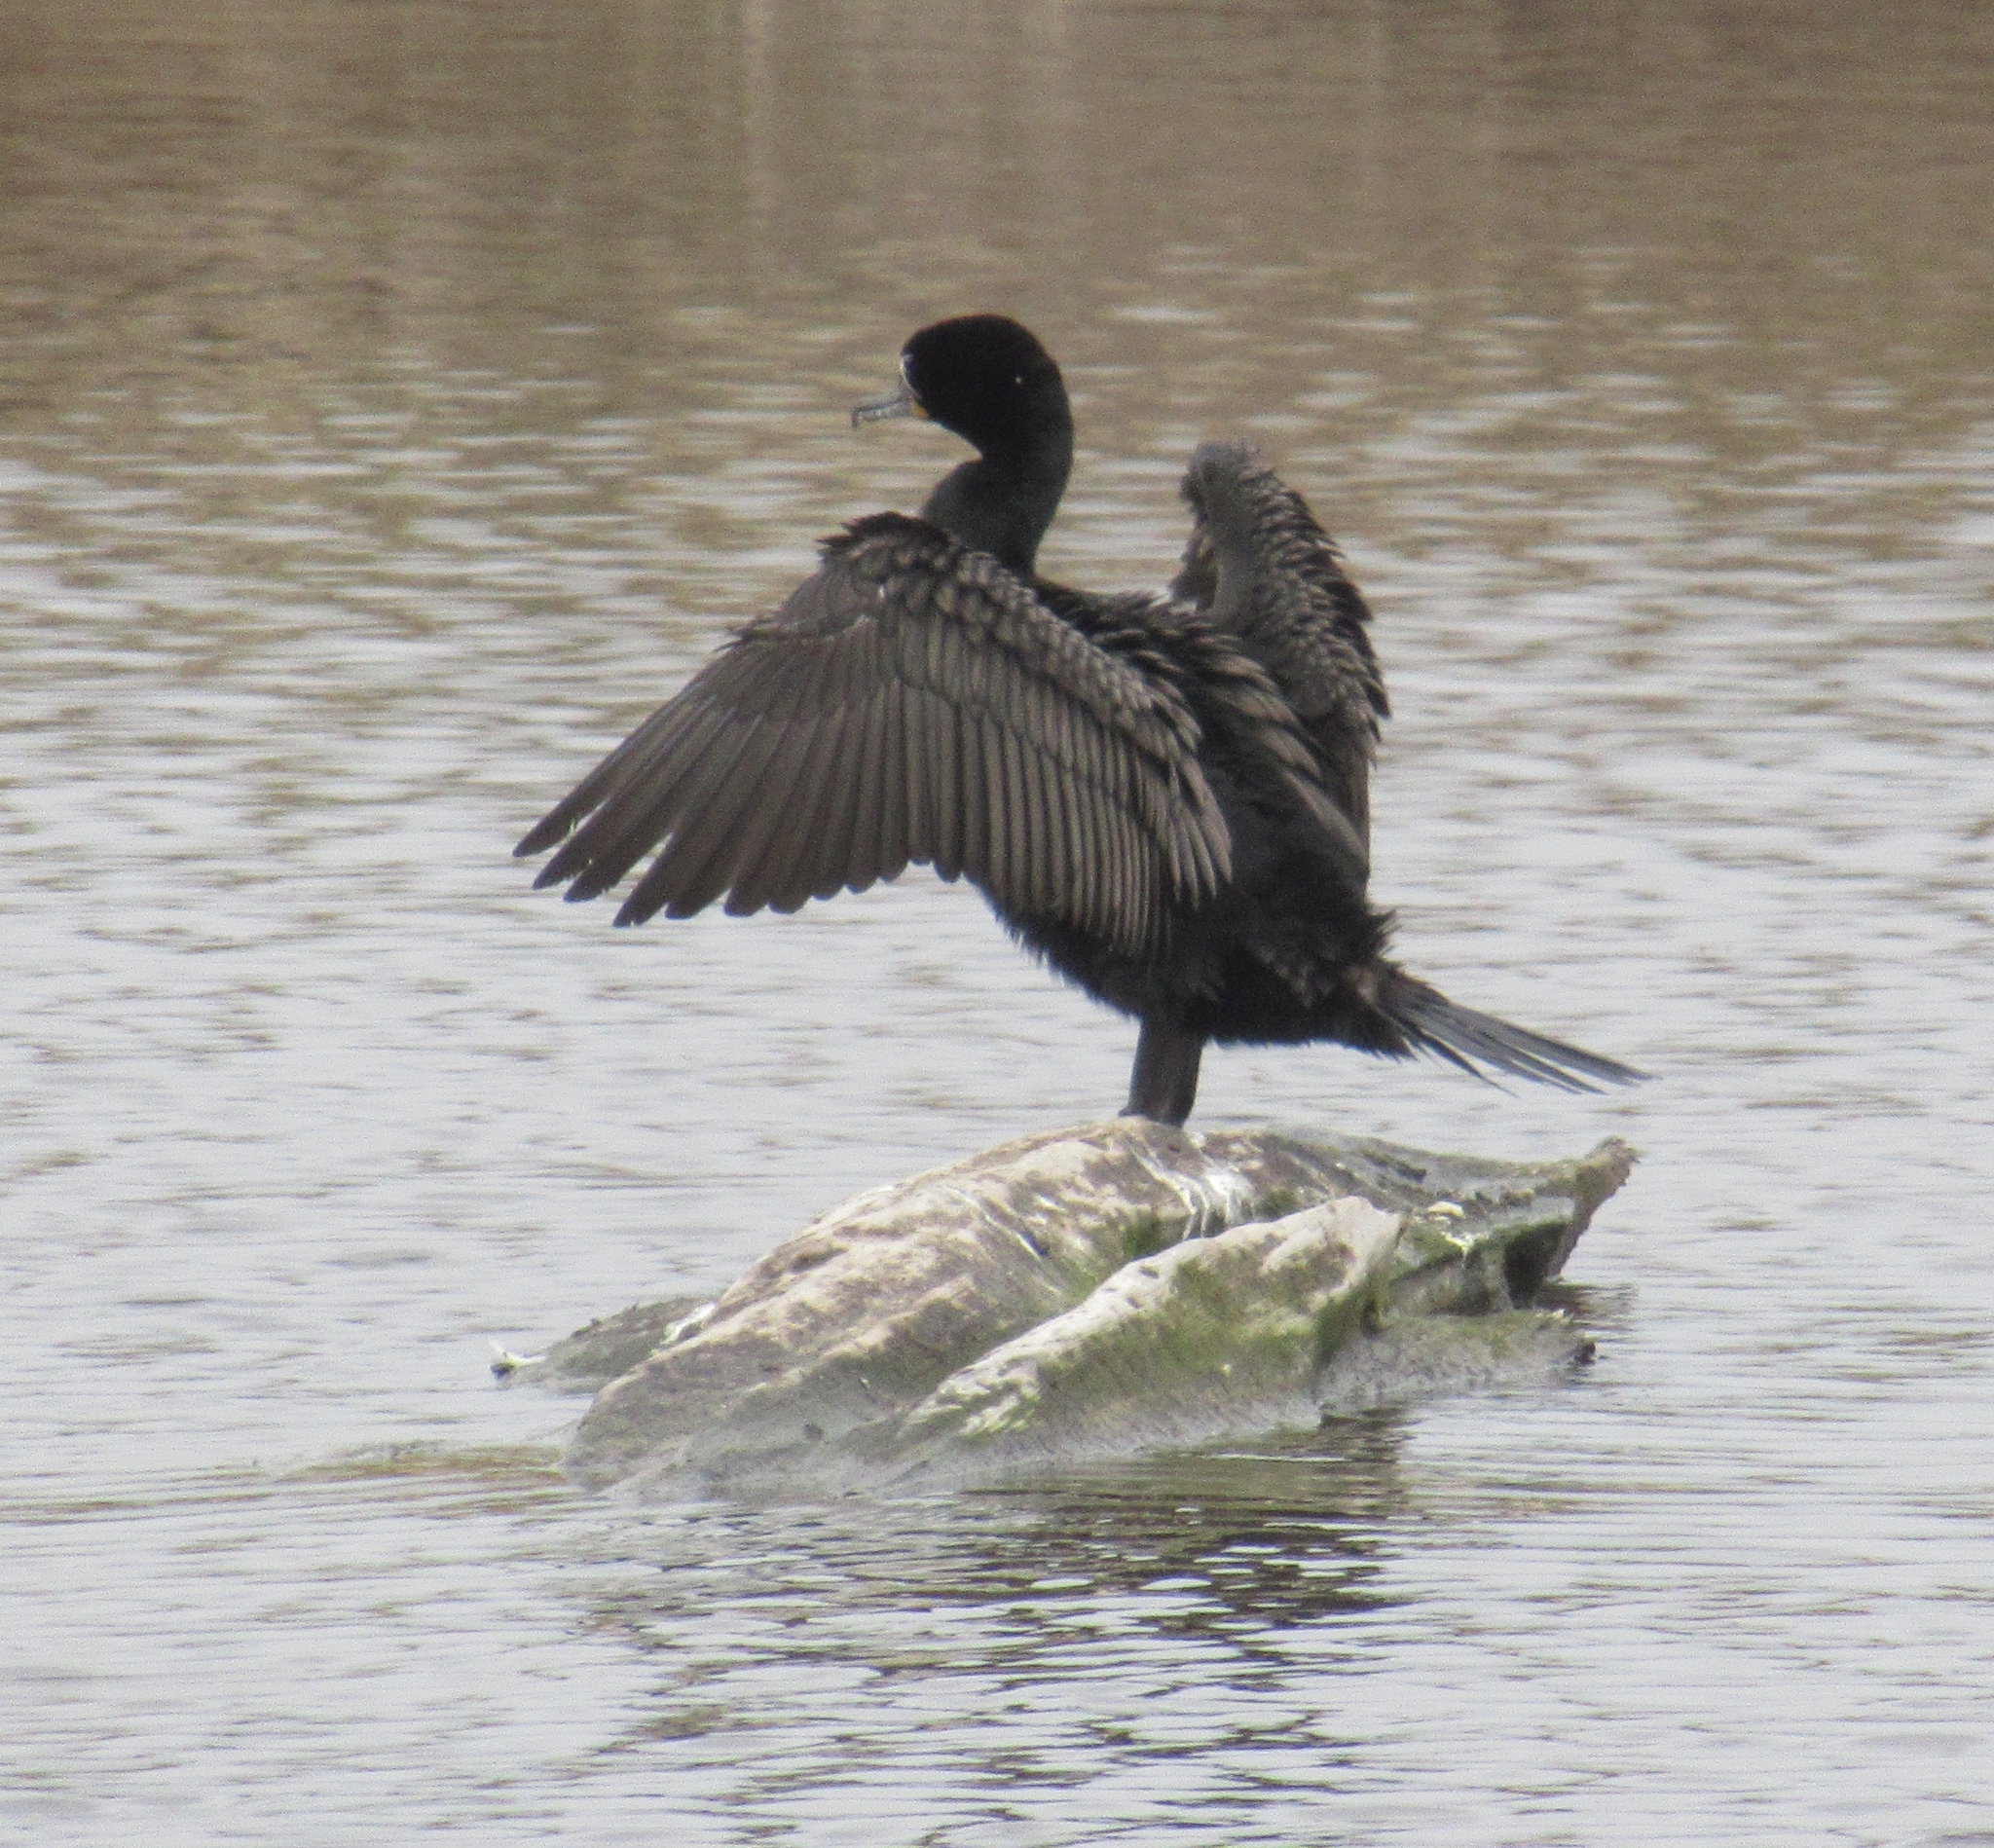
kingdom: Animalia
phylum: Chordata
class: Aves
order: Suliformes
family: Phalacrocoracidae
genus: Phalacrocorax
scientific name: Phalacrocorax auritus
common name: Double-crested cormorant
